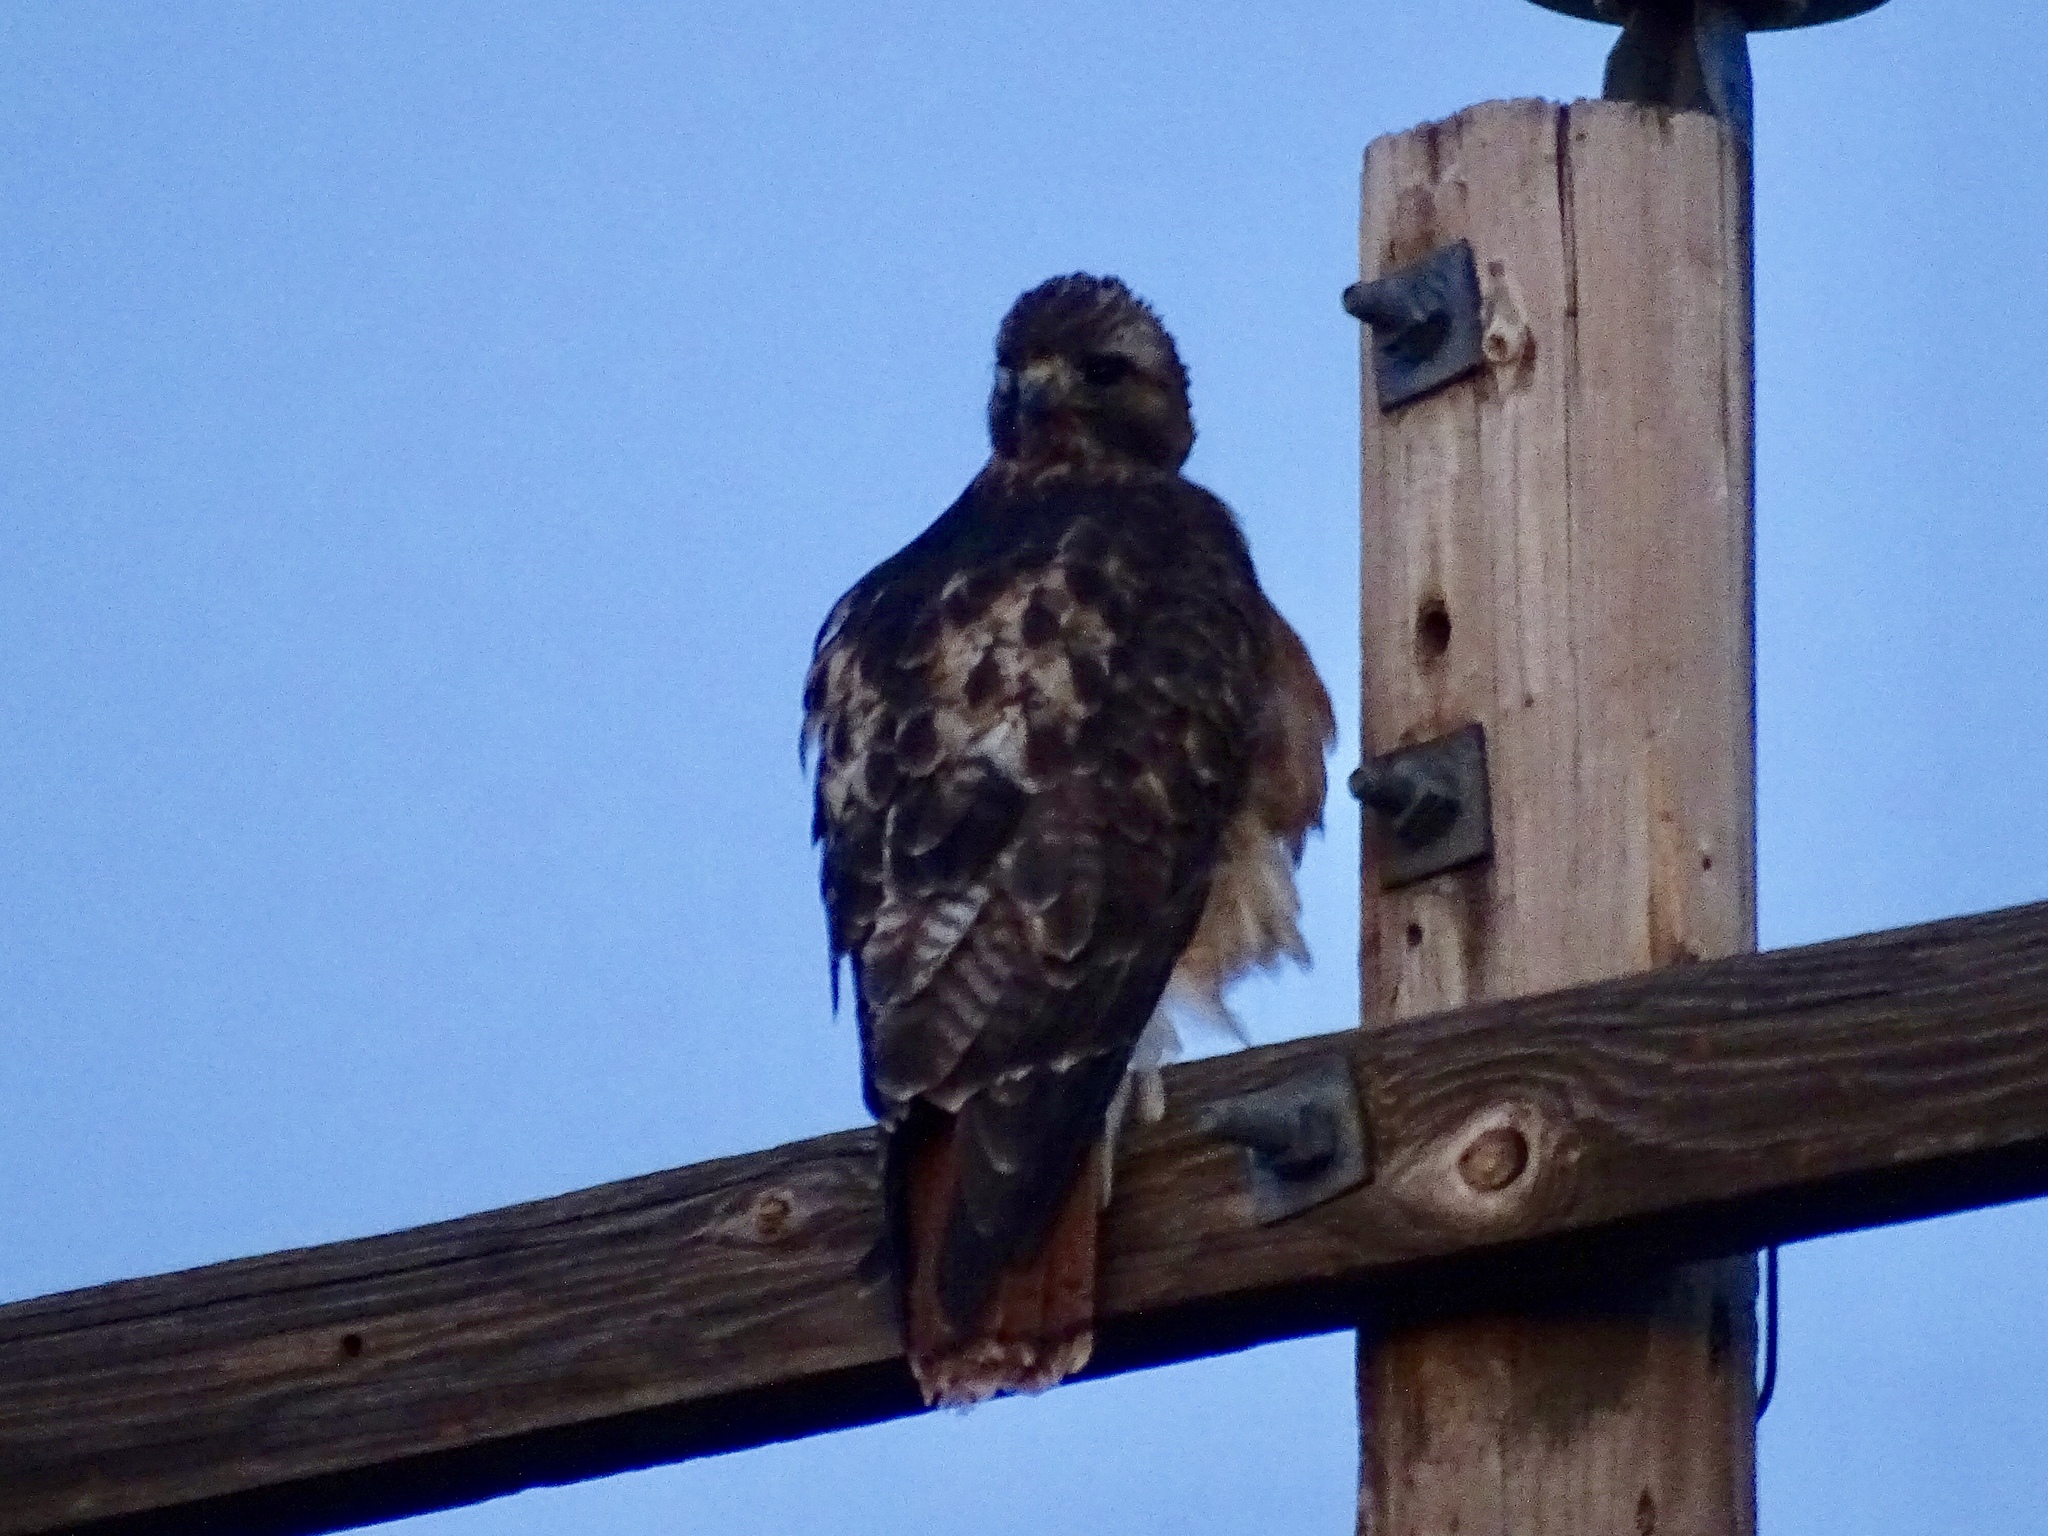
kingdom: Animalia
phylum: Chordata
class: Aves
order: Accipitriformes
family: Accipitridae
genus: Buteo
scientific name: Buteo jamaicensis
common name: Red-tailed hawk
